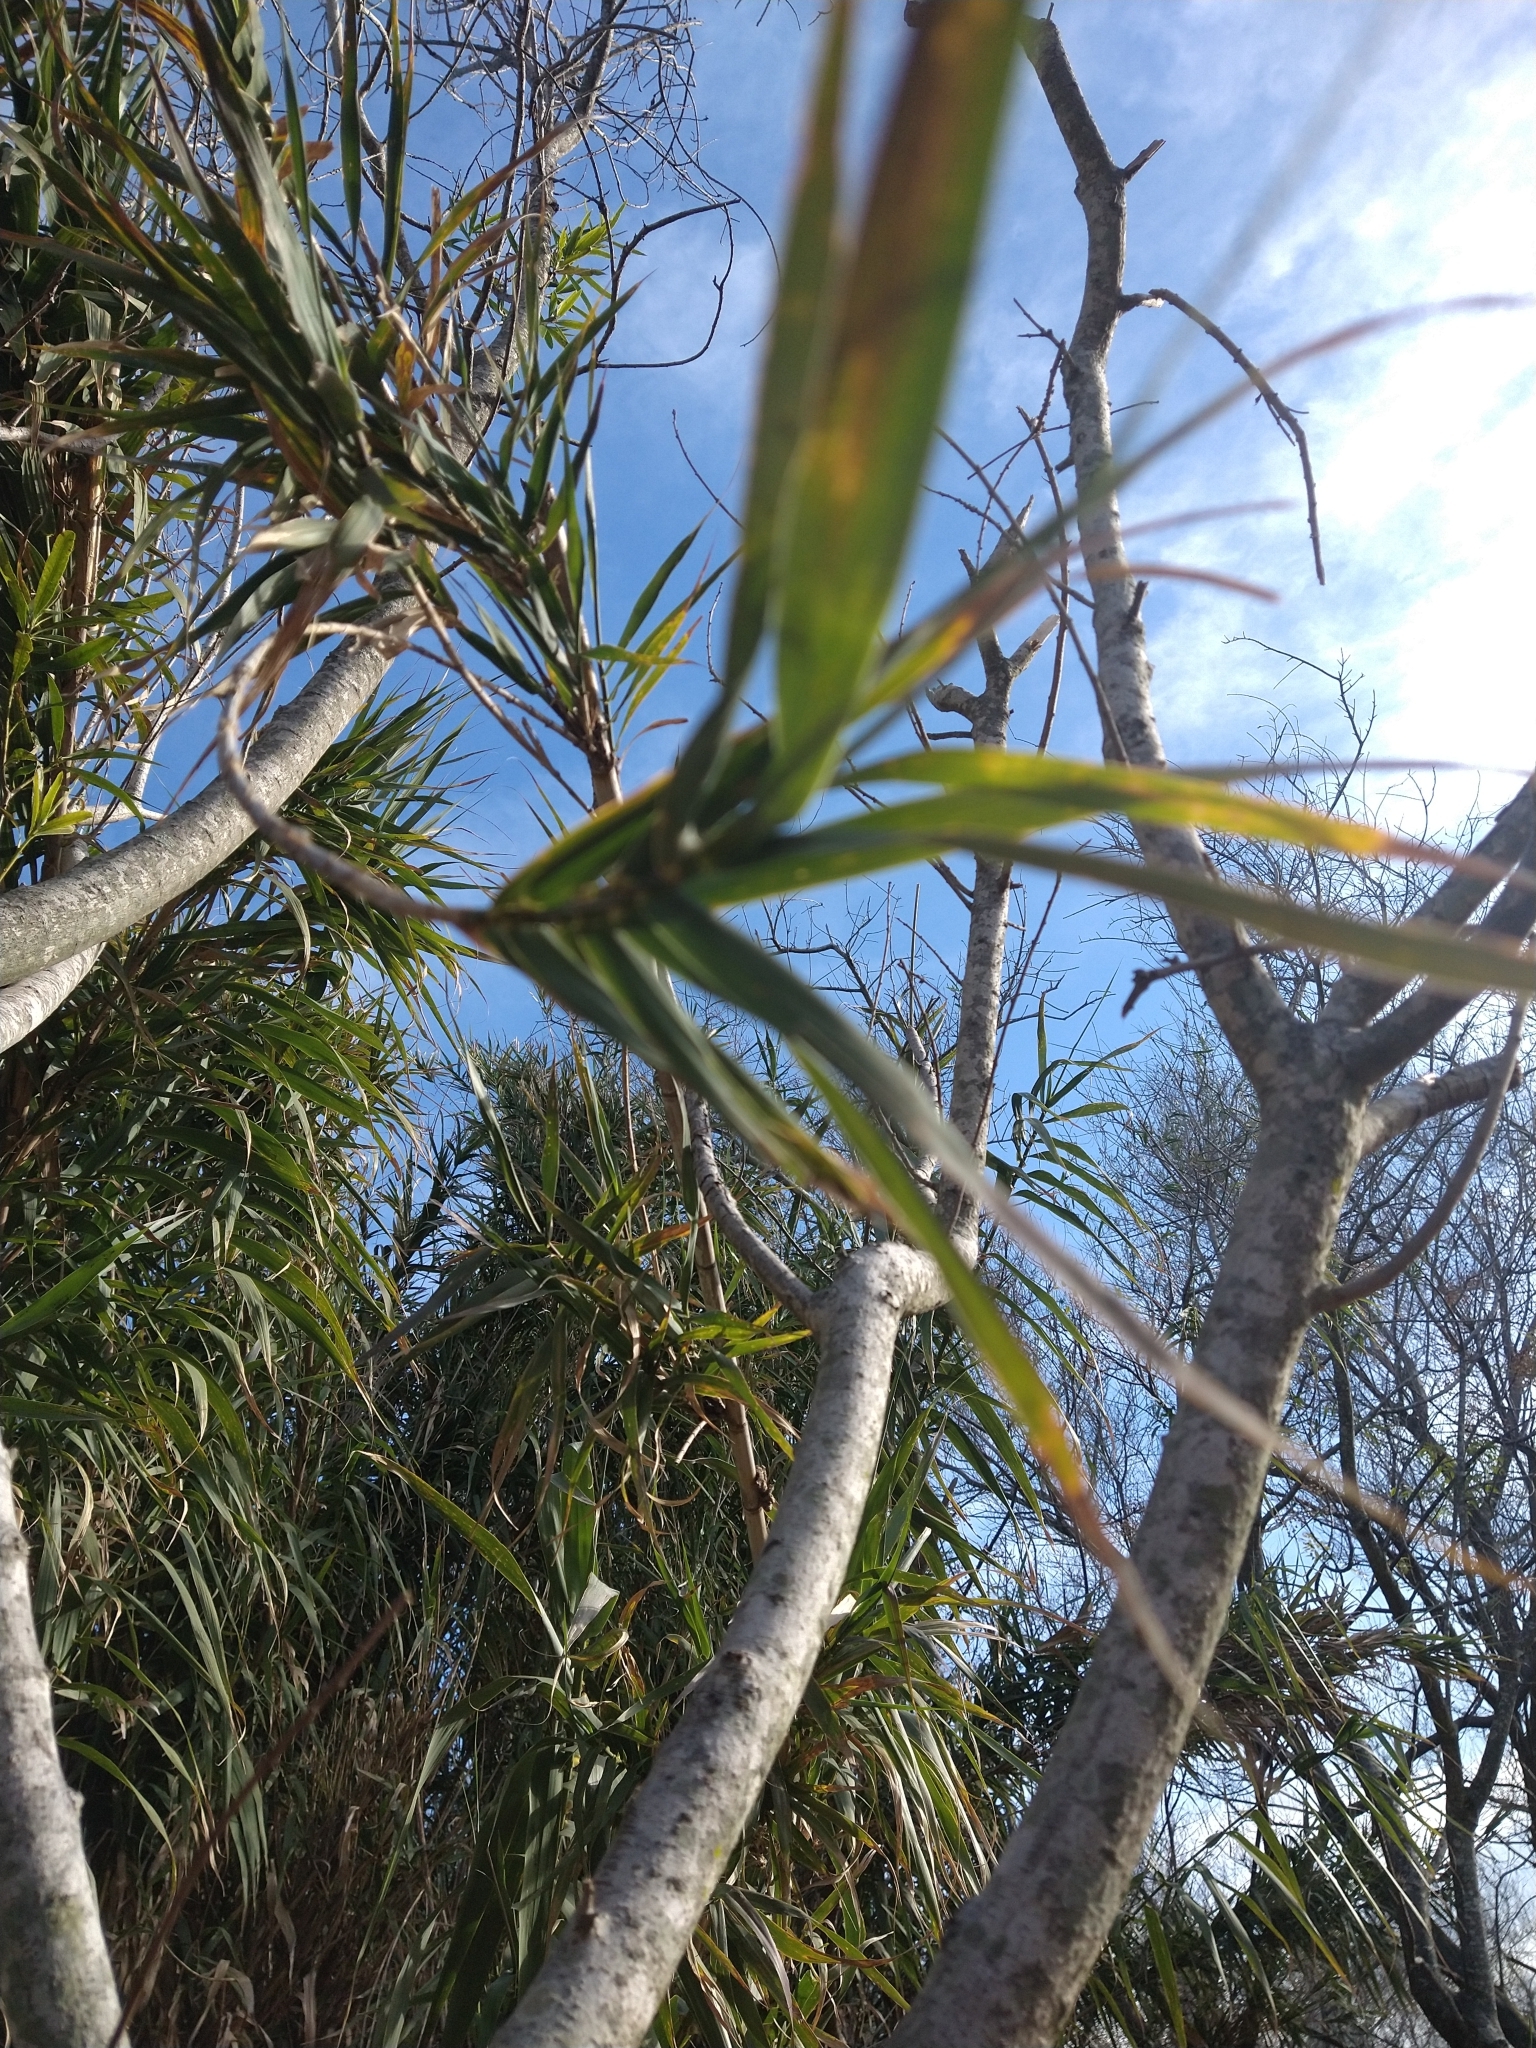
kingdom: Plantae
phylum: Tracheophyta
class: Magnoliopsida
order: Malpighiales
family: Euphorbiaceae
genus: Sapium
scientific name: Sapium haematospermum
